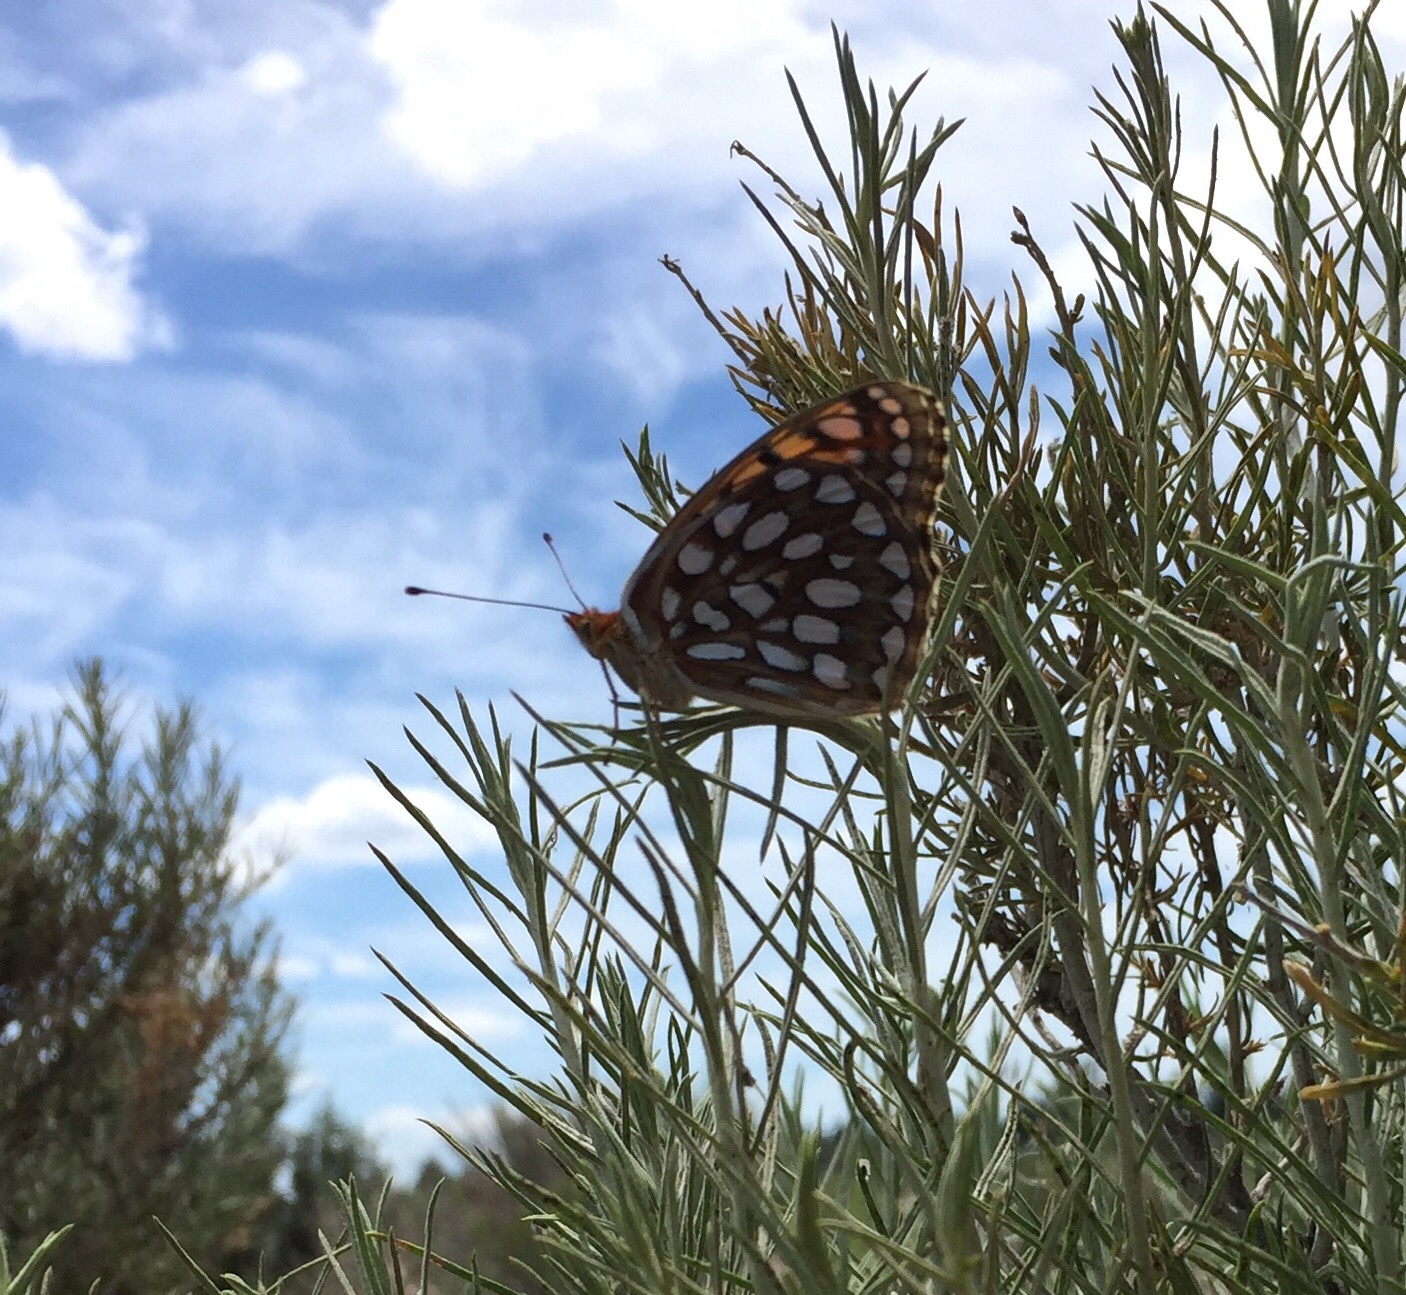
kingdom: Animalia
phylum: Arthropoda
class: Insecta
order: Lepidoptera
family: Nymphalidae
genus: Speyeria
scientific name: Speyeria callippe
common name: Callippe fritillary
